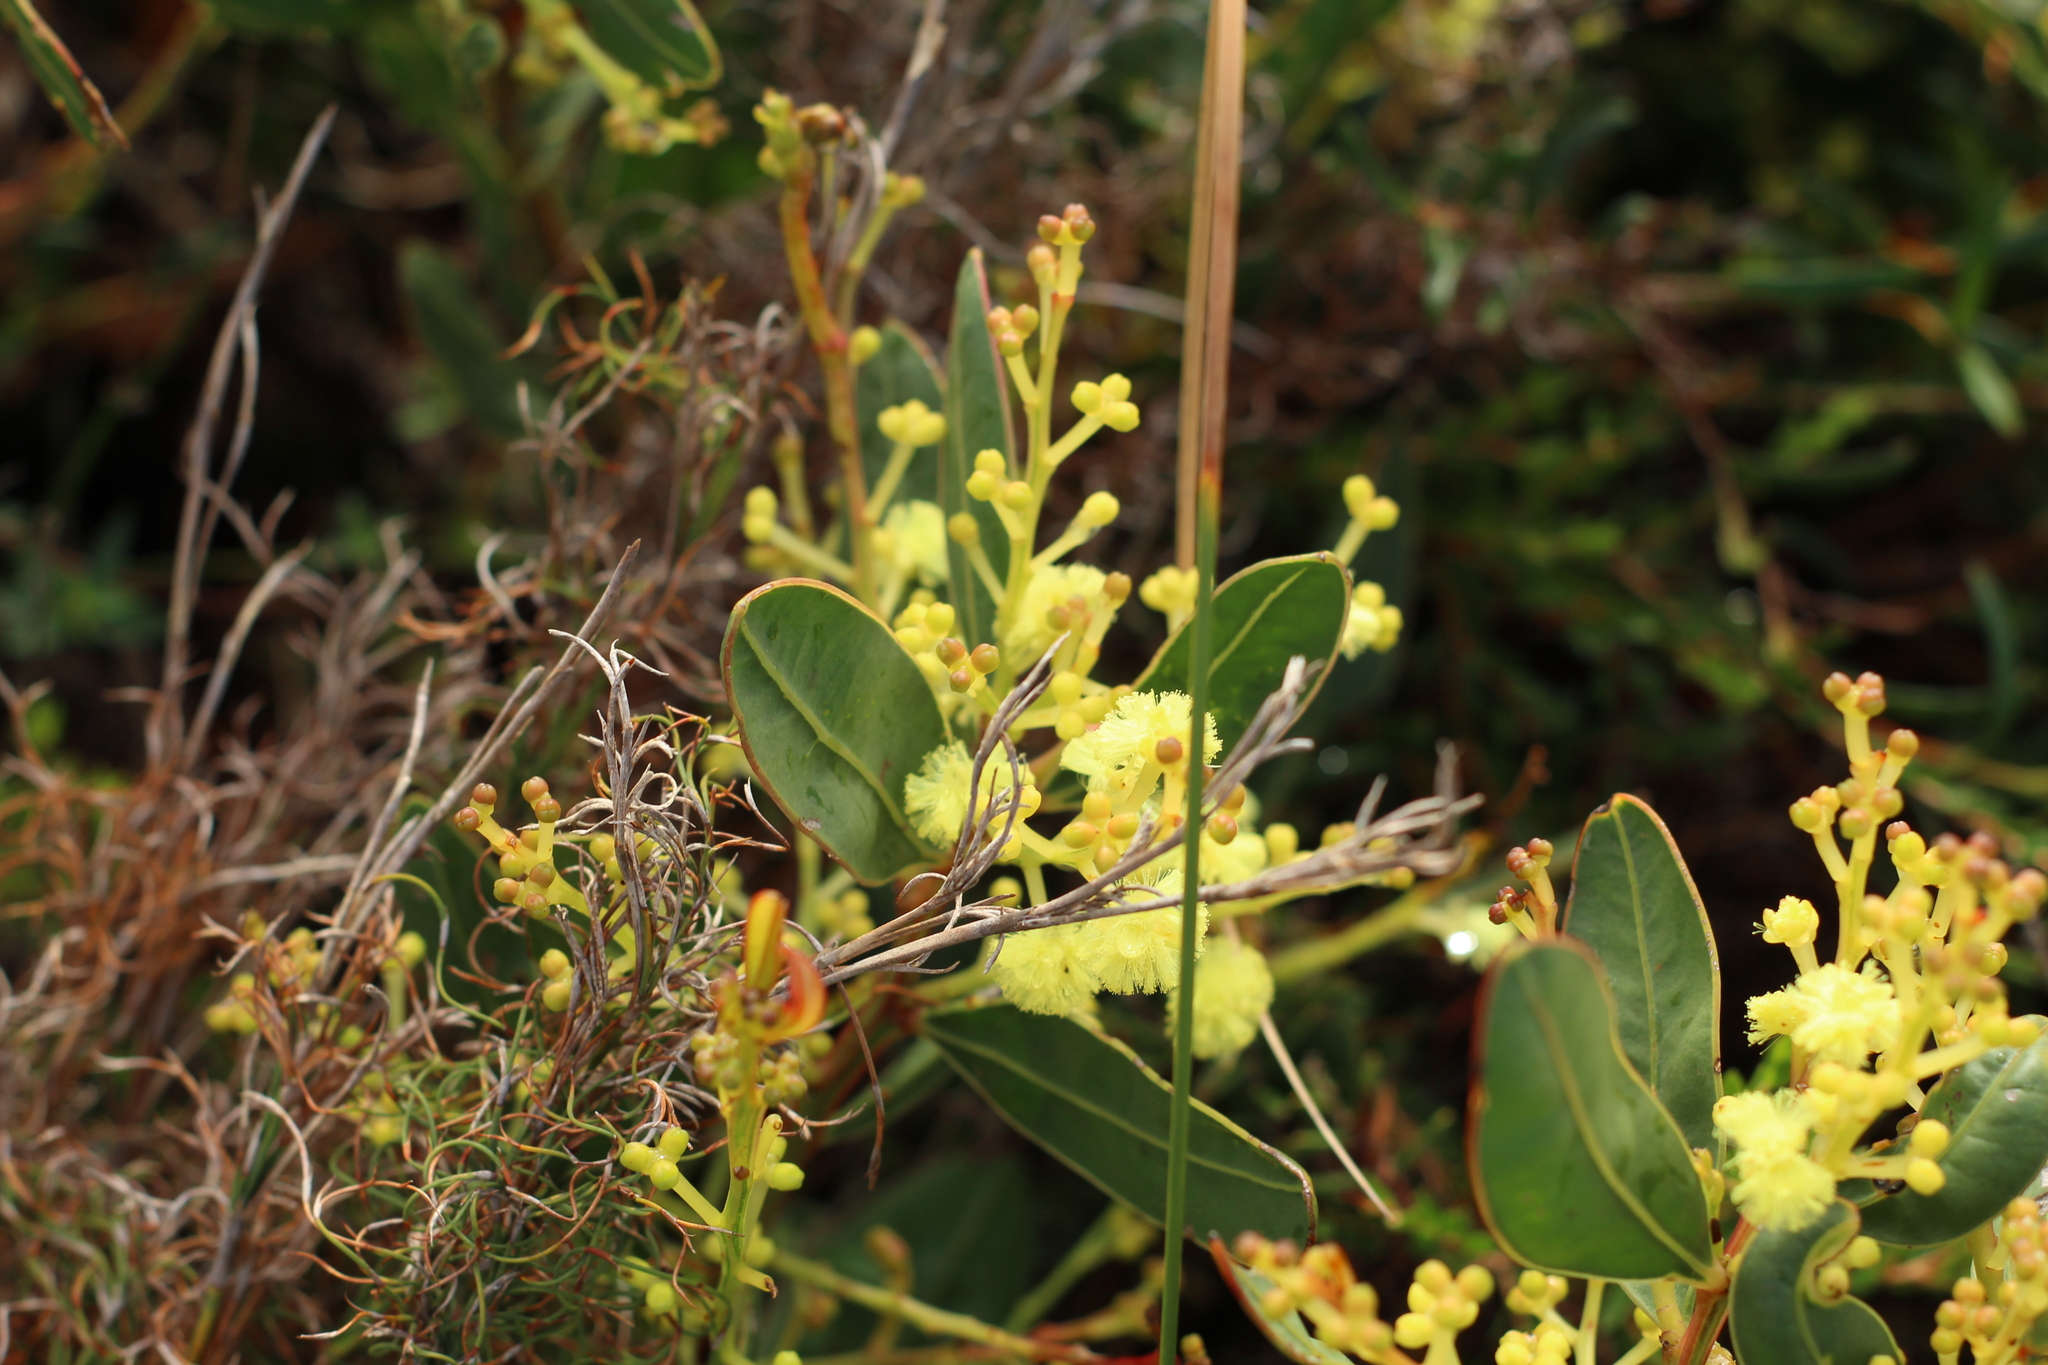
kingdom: Plantae
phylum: Tracheophyta
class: Magnoliopsida
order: Fabales
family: Fabaceae
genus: Acacia
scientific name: Acacia myrtifolia
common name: Myrtle wattle
